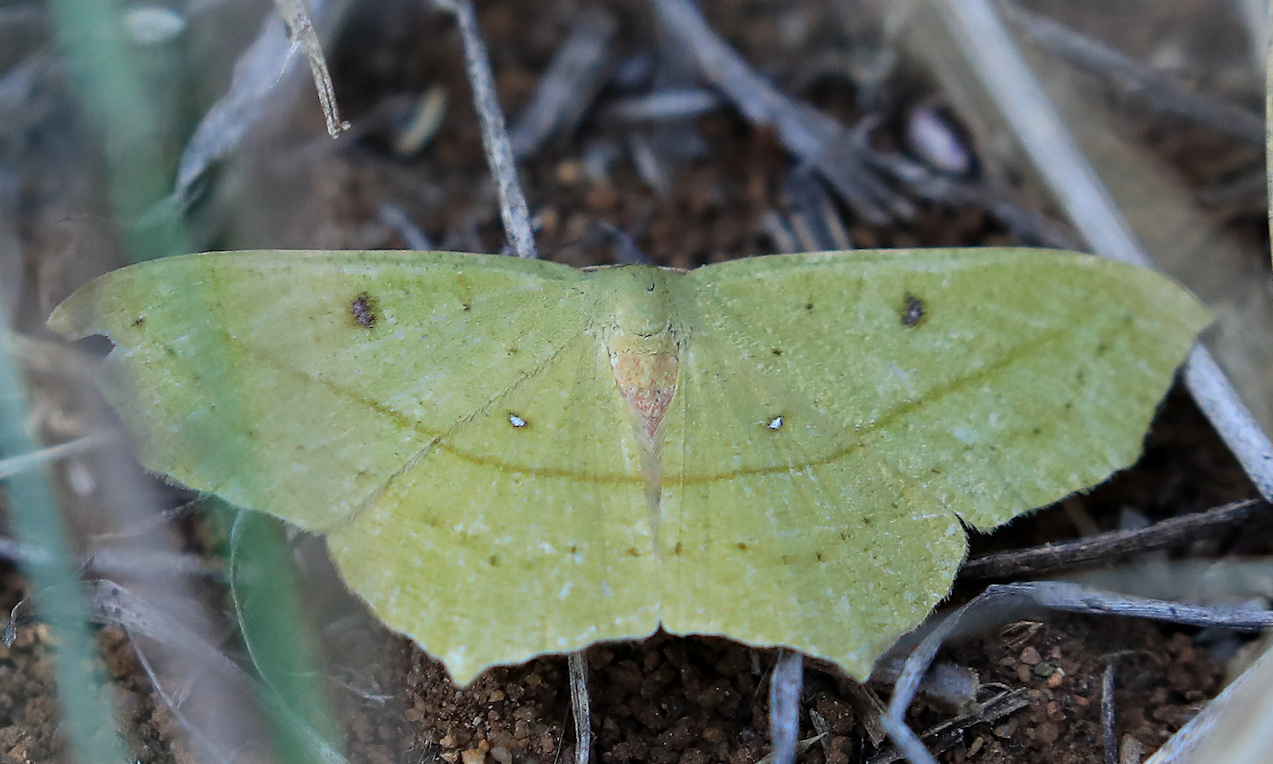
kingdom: Animalia
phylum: Arthropoda
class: Insecta
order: Lepidoptera
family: Geometridae
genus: Traminda
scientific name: Traminda neptunaria
